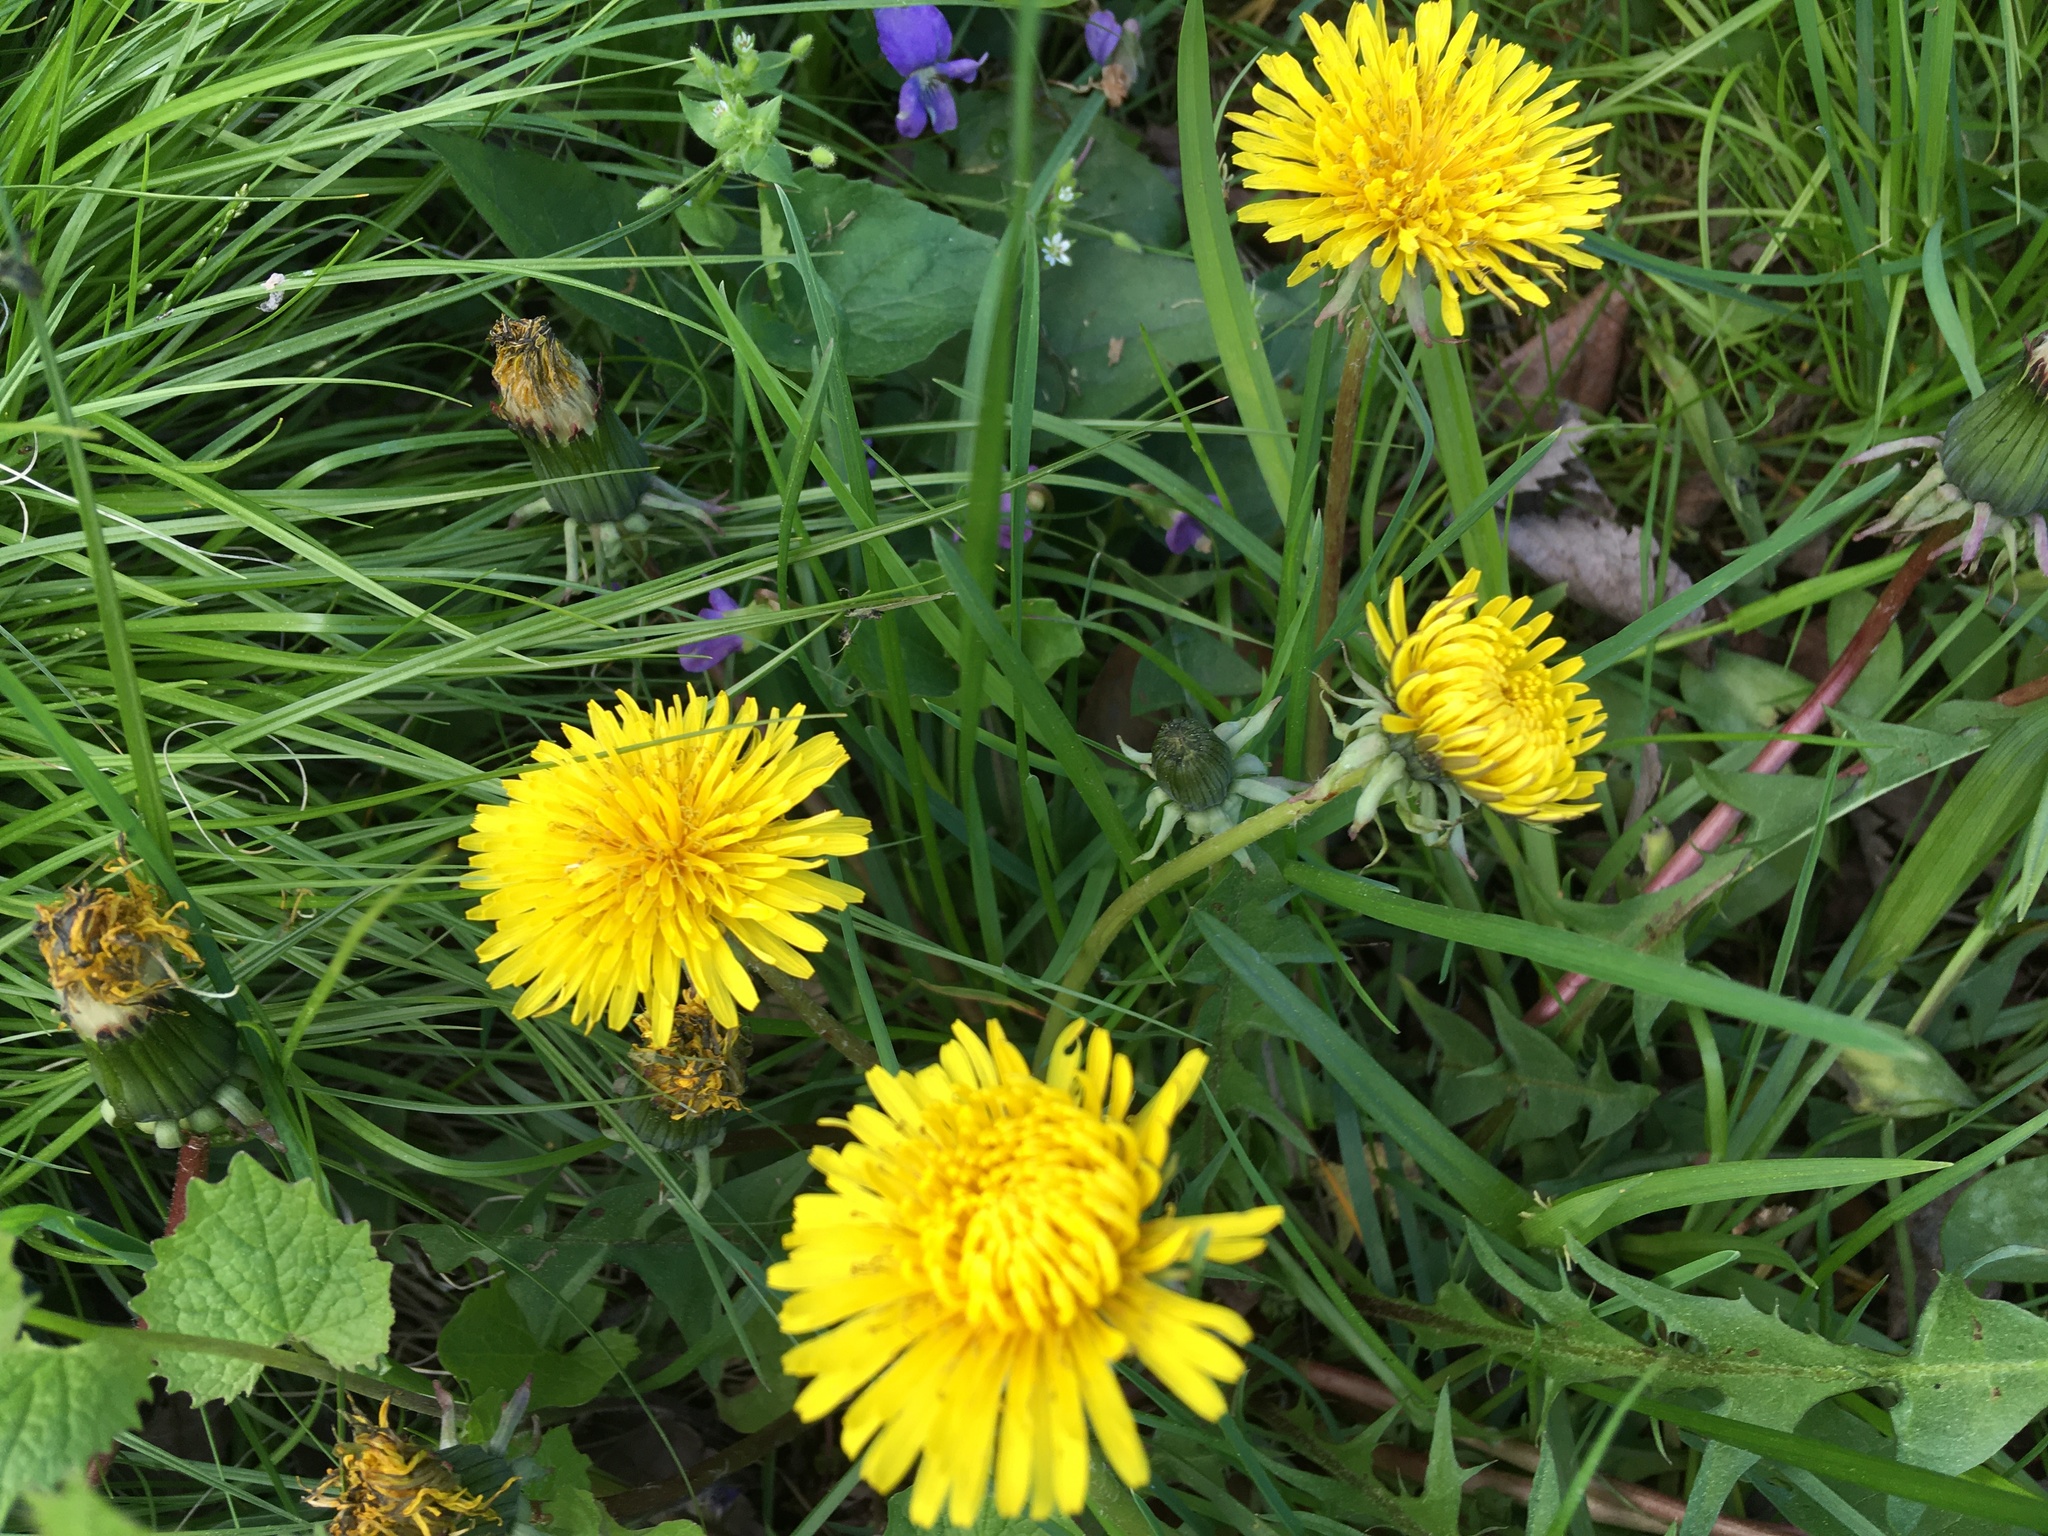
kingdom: Plantae
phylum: Tracheophyta
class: Magnoliopsida
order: Asterales
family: Asteraceae
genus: Taraxacum
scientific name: Taraxacum officinale
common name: Common dandelion
